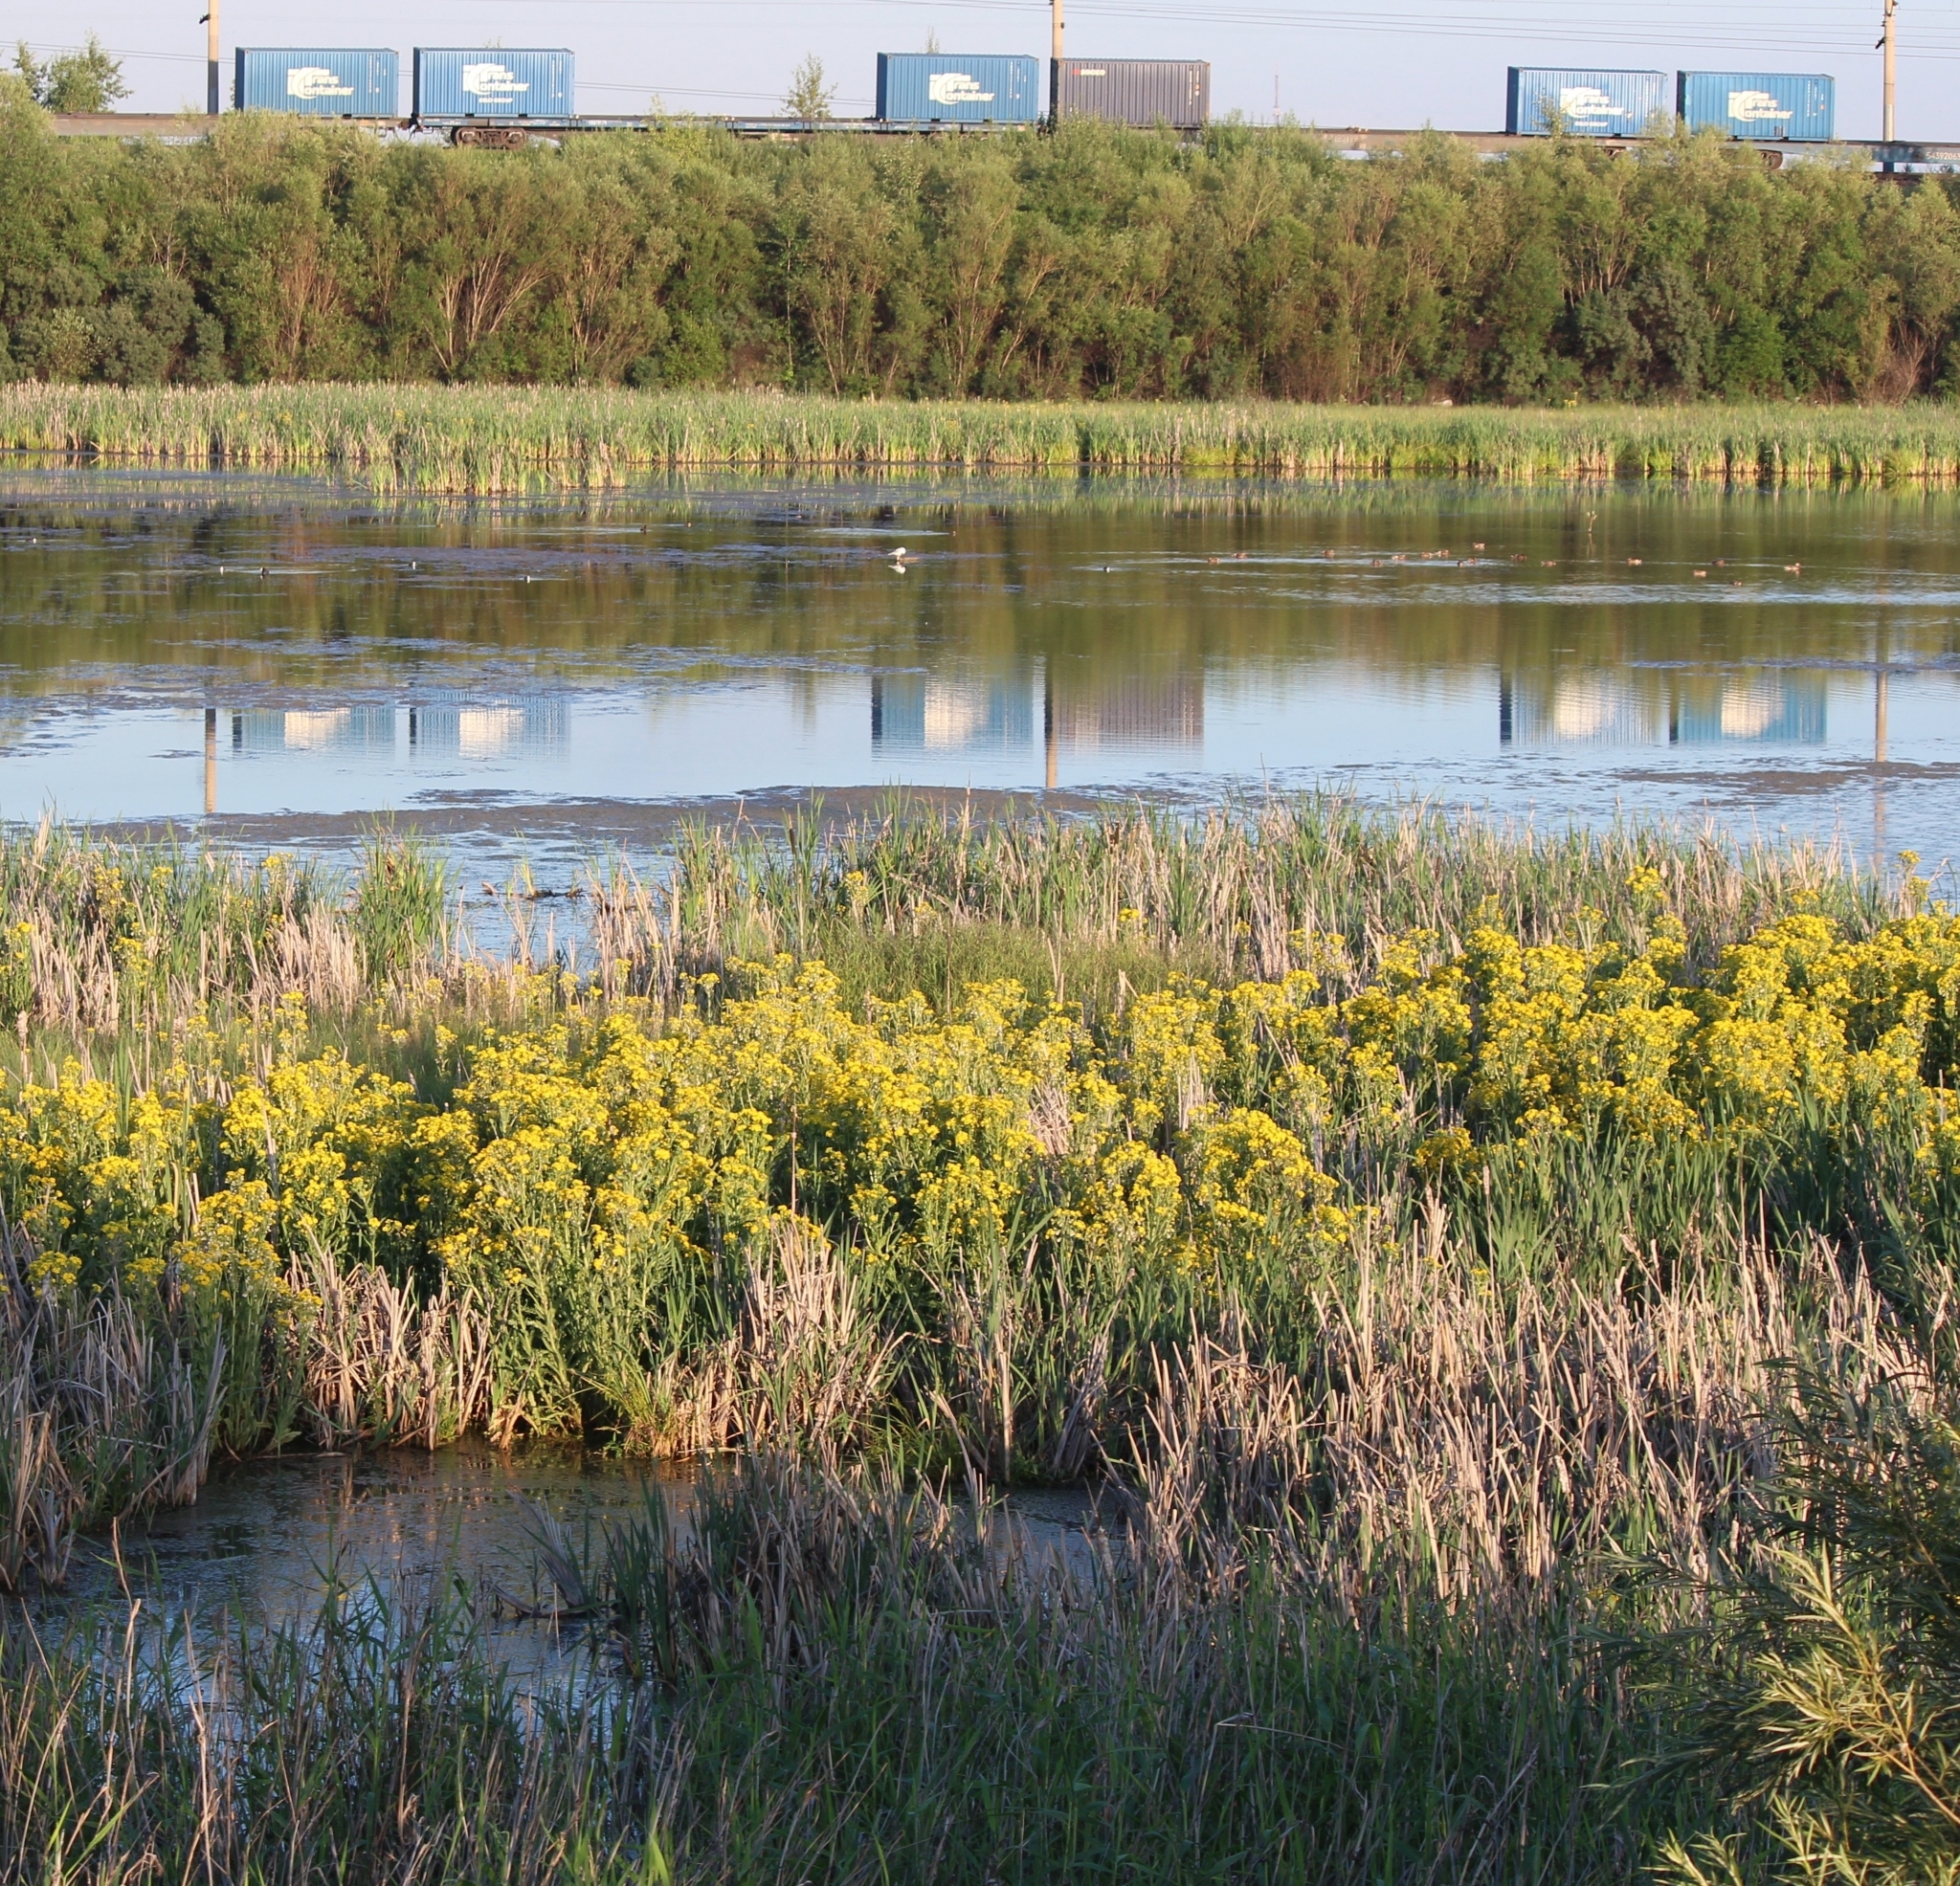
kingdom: Plantae
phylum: Tracheophyta
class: Magnoliopsida
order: Asterales
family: Asteraceae
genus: Tephroseris
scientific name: Tephroseris palustris
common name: Marsh fleawort
